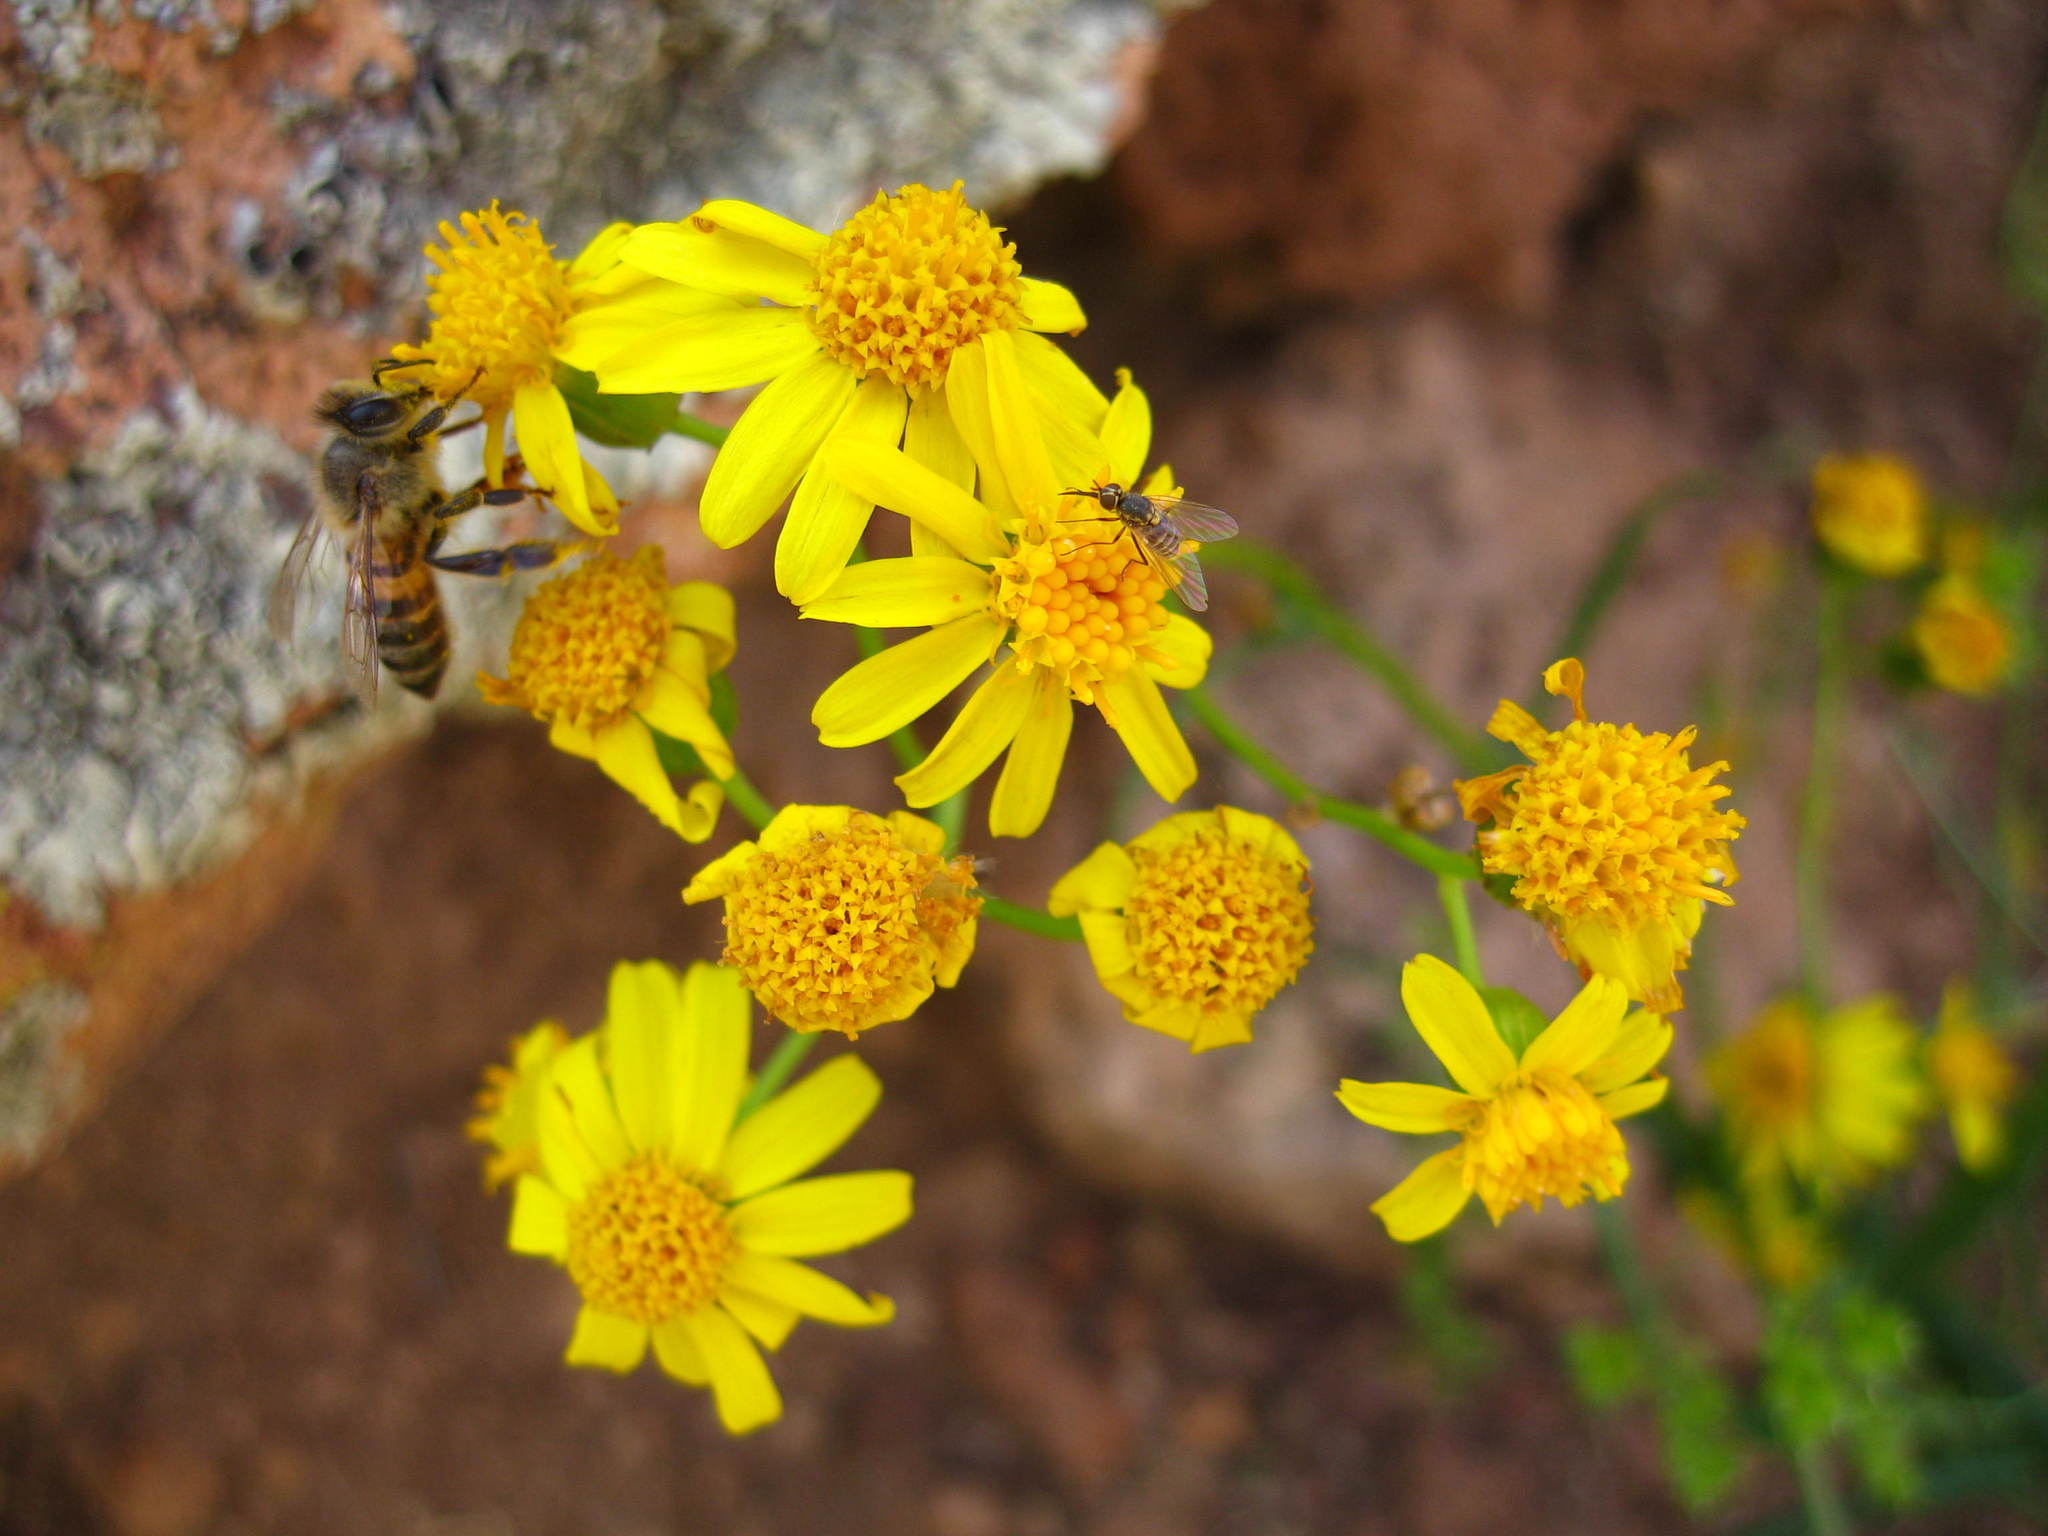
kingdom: Plantae
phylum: Tracheophyta
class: Magnoliopsida
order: Asterales
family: Asteraceae
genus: Senecio
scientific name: Senecio lemmonii
